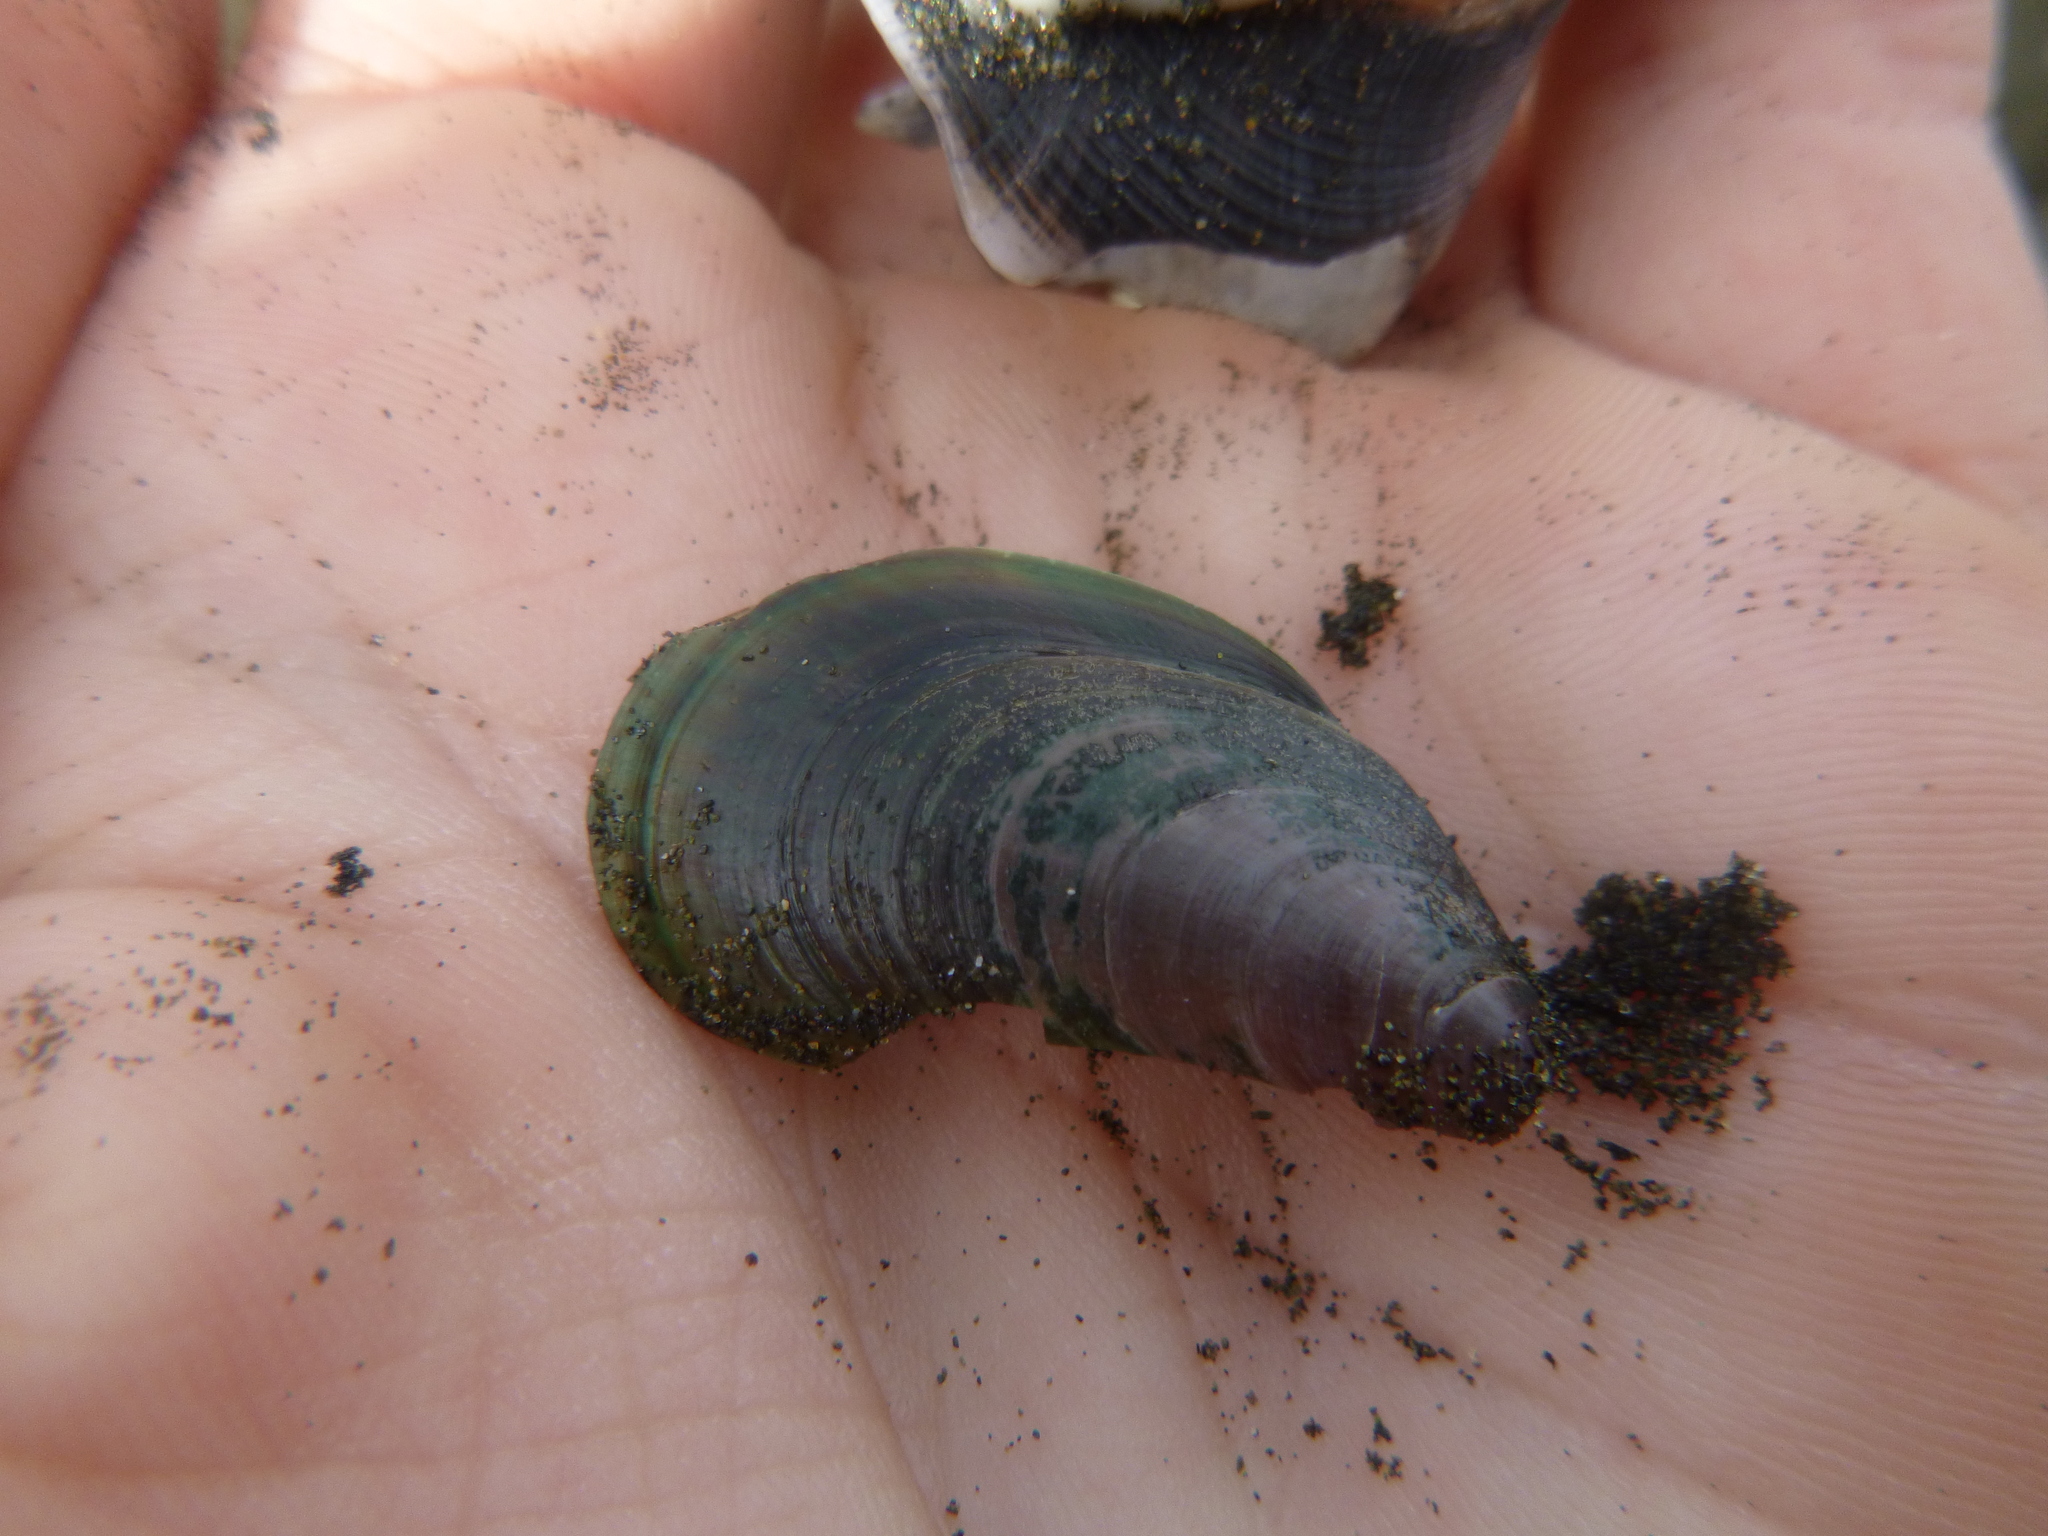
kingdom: Animalia
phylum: Mollusca
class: Bivalvia
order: Mytilida
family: Mytilidae
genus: Perna
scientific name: Perna canaliculus
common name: New zealand greenshelltm
